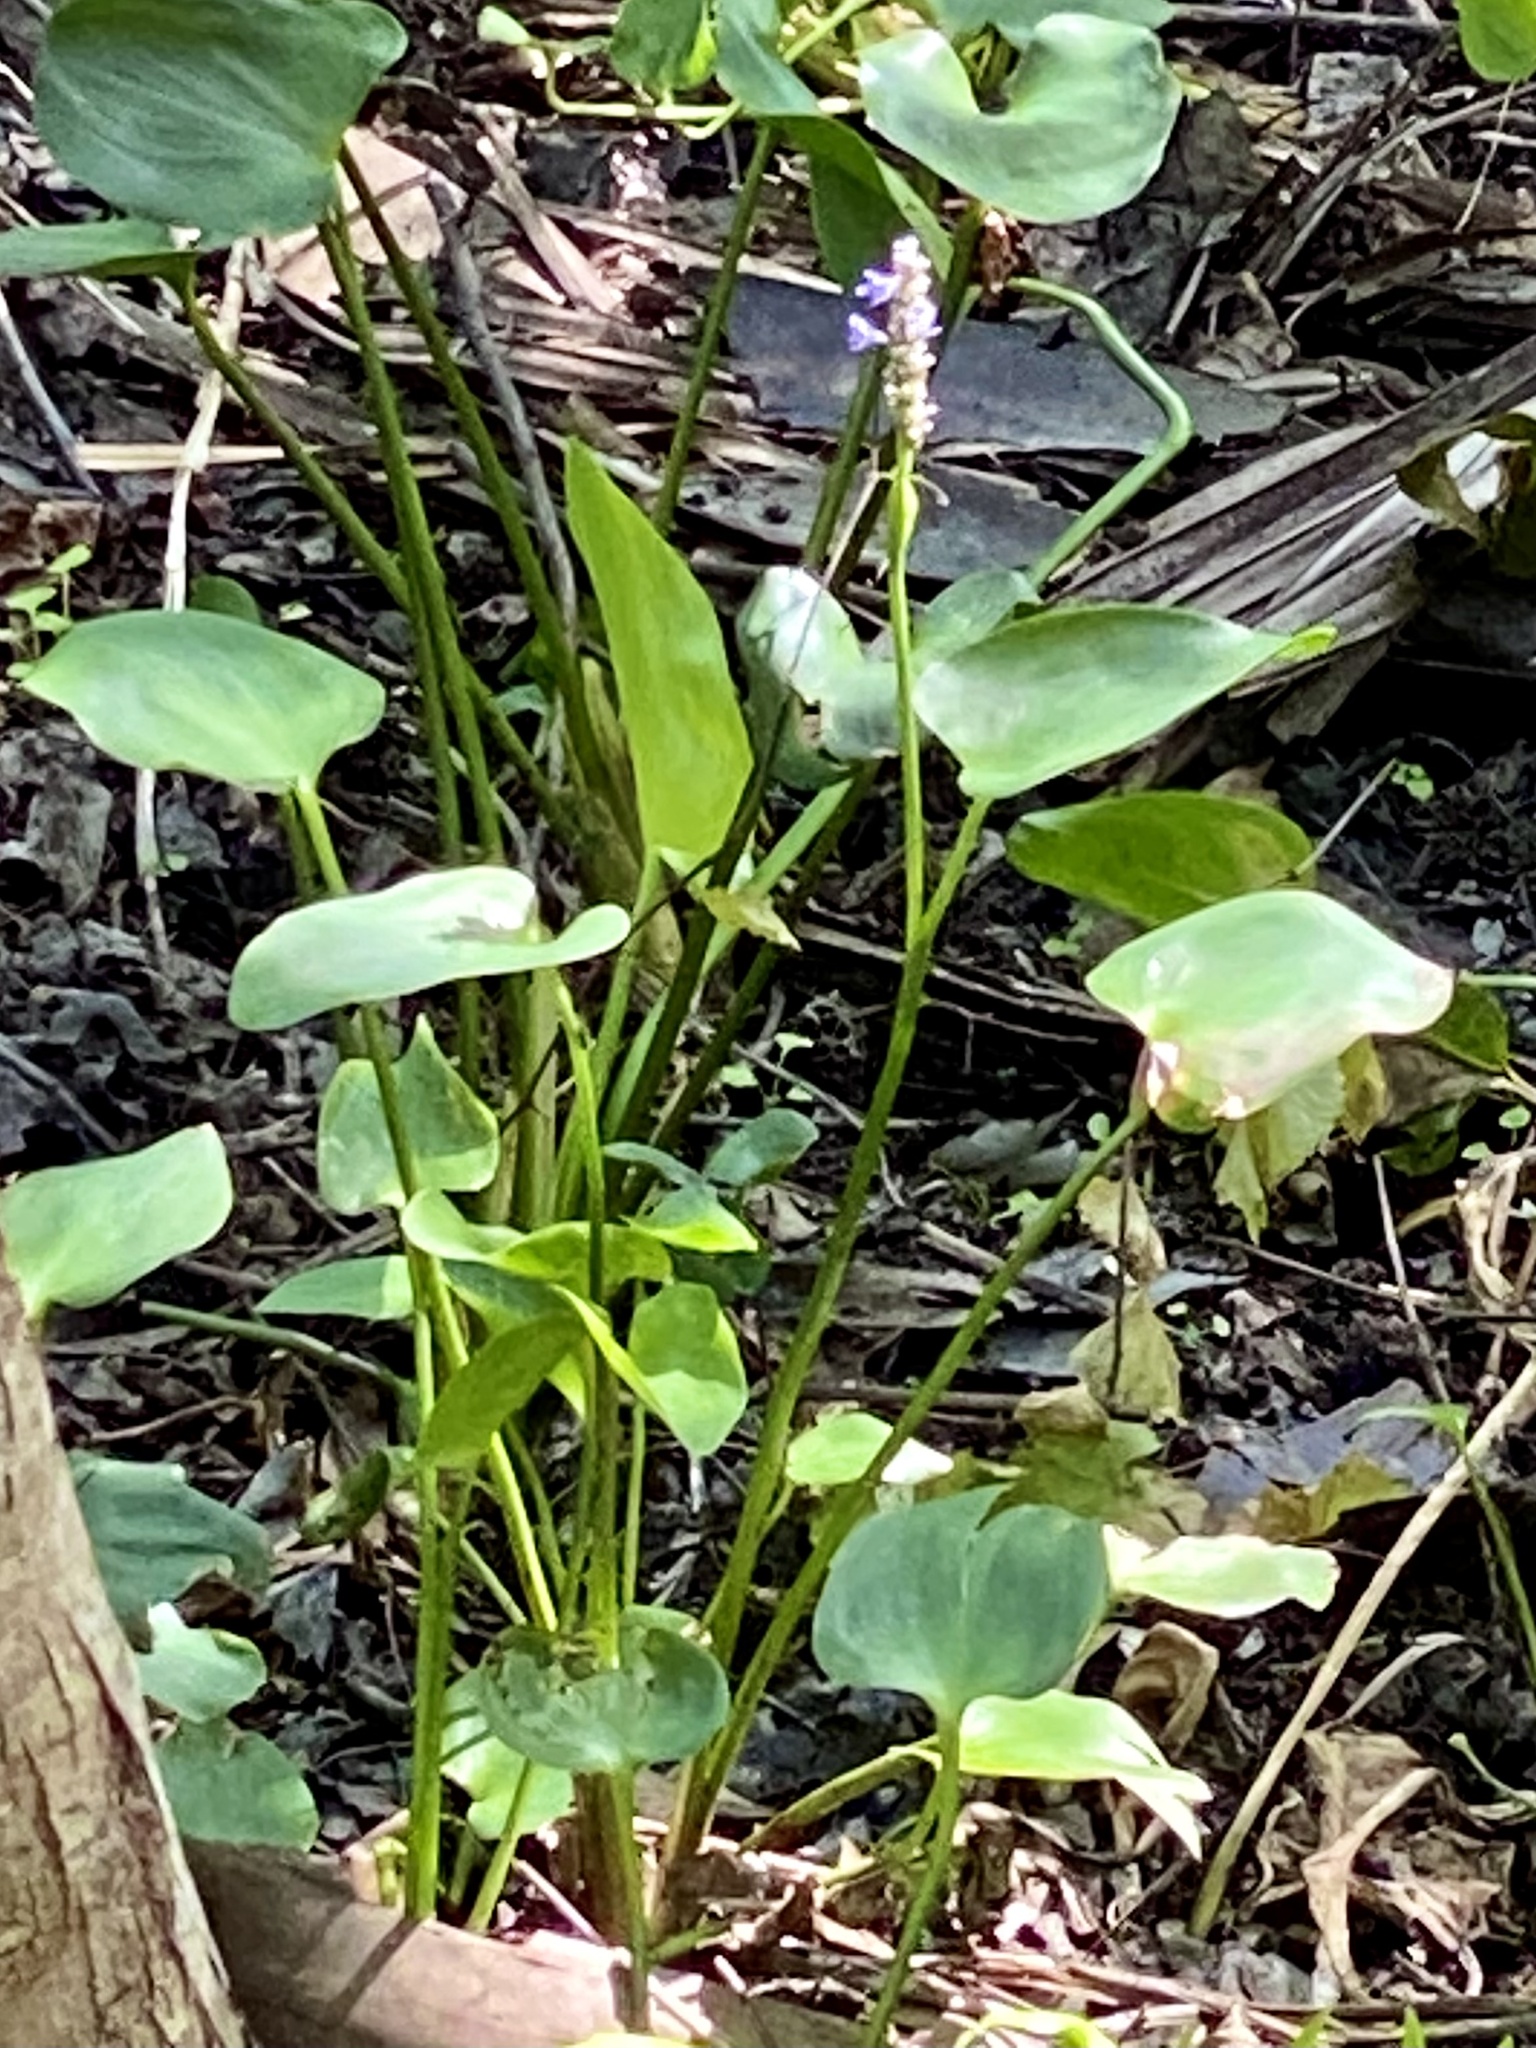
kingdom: Plantae
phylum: Tracheophyta
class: Liliopsida
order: Commelinales
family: Pontederiaceae
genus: Pontederia
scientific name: Pontederia cordata
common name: Pickerelweed
